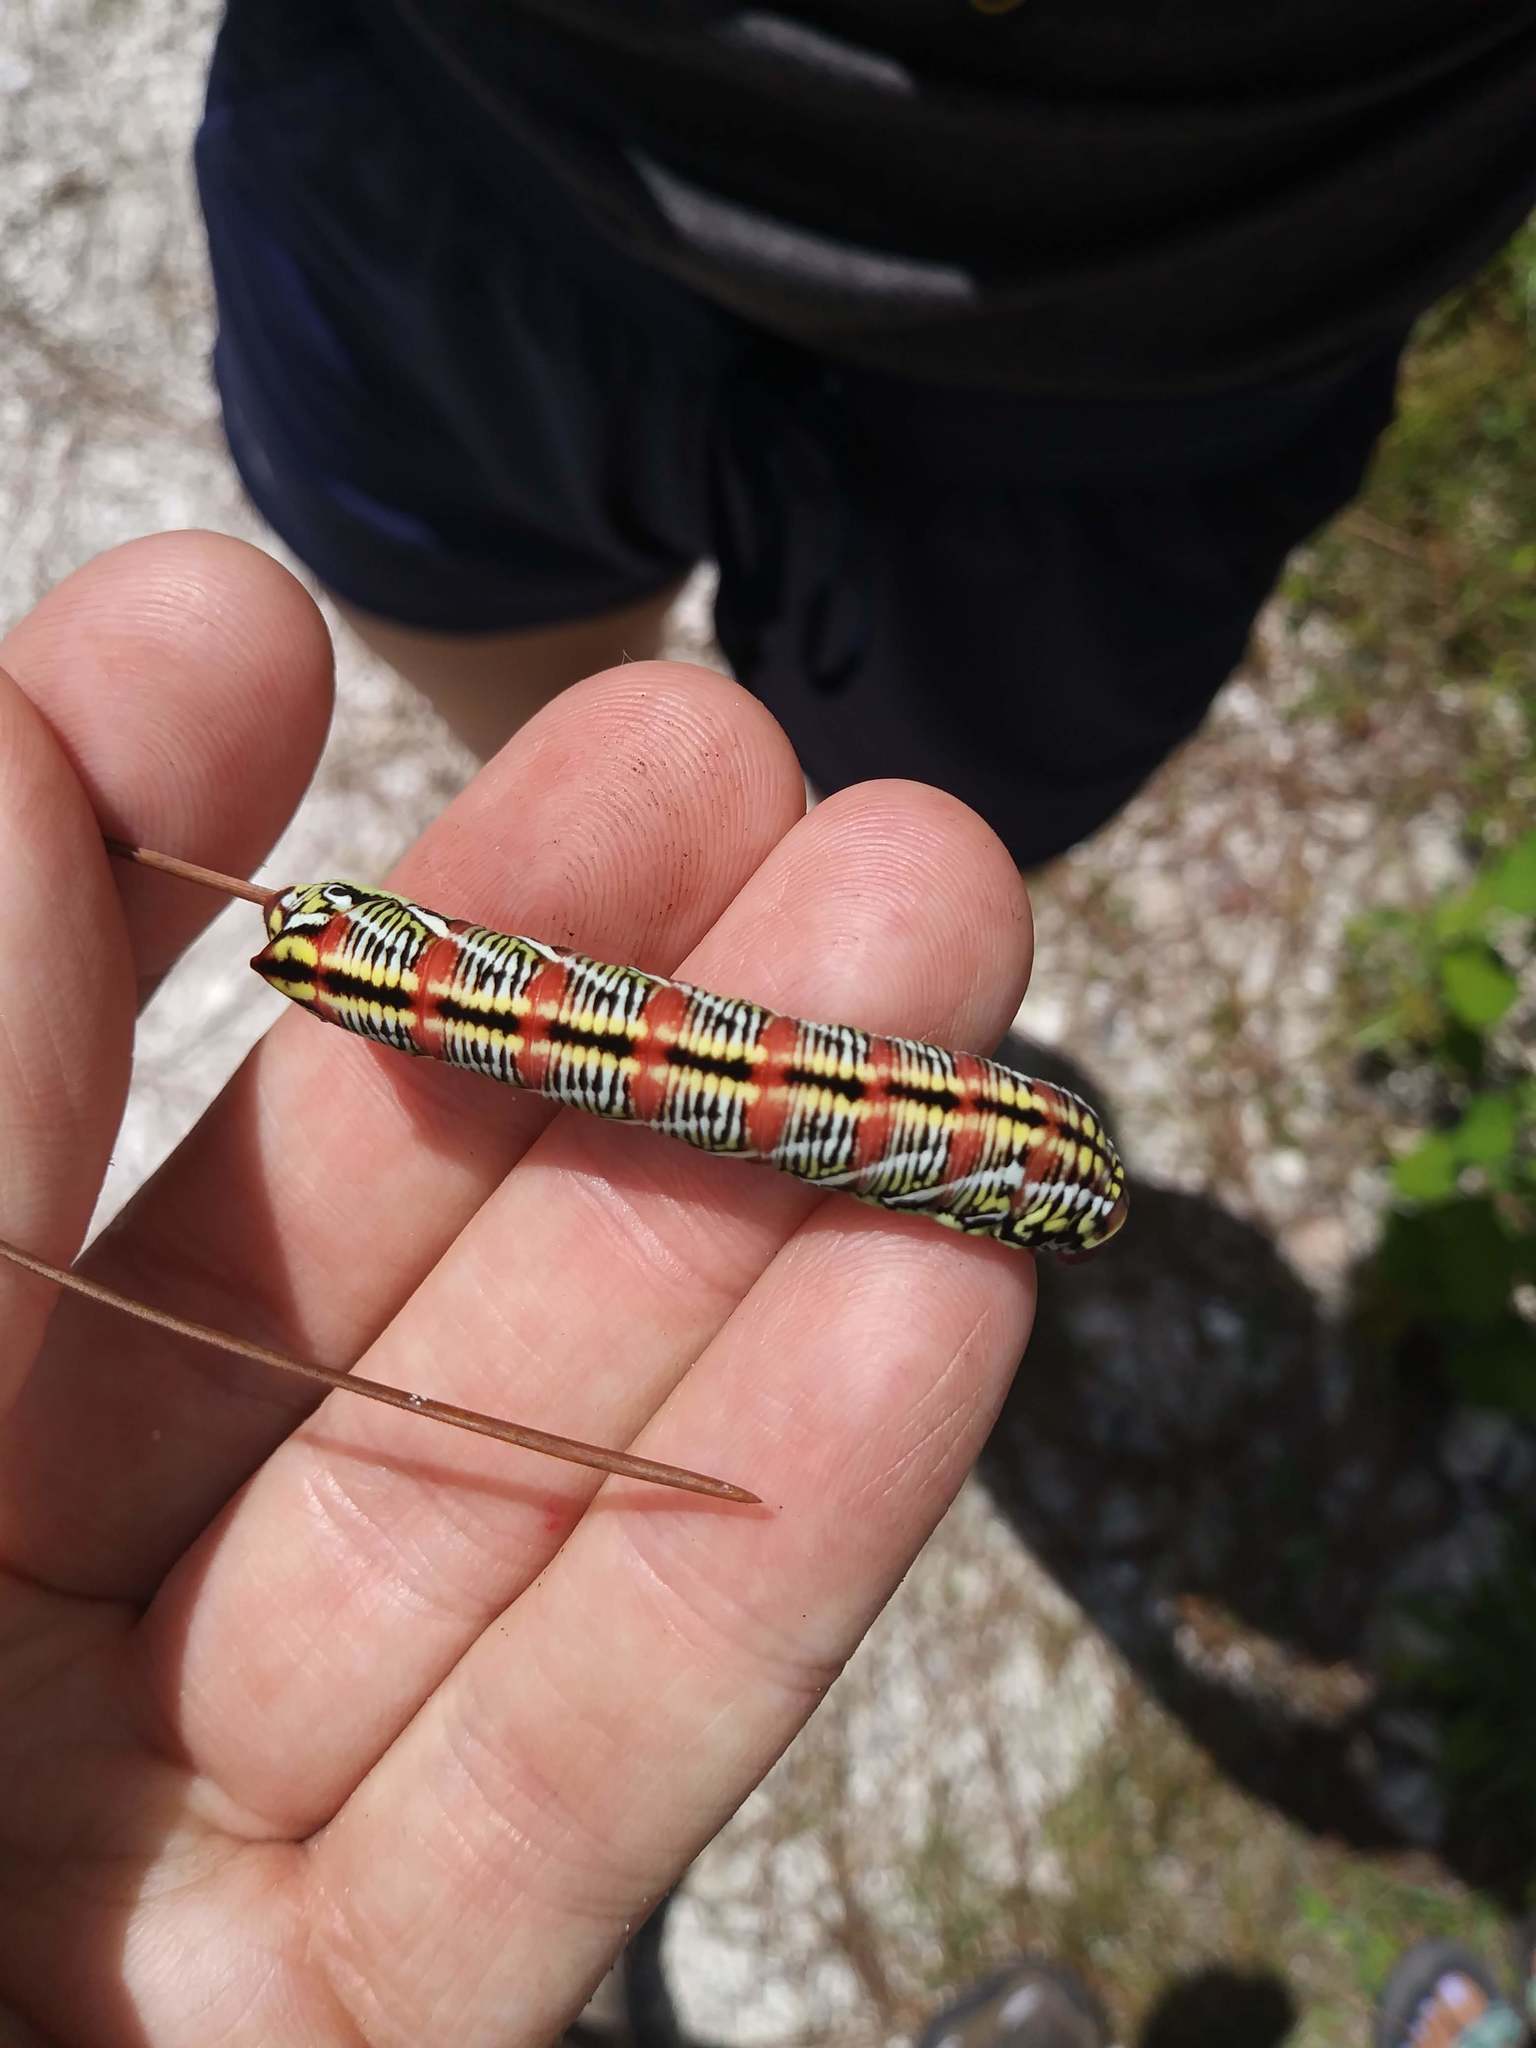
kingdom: Animalia
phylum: Arthropoda
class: Insecta
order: Lepidoptera
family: Sphingidae
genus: Eumorpha
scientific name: Eumorpha fasciatus
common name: Banded sphinx
